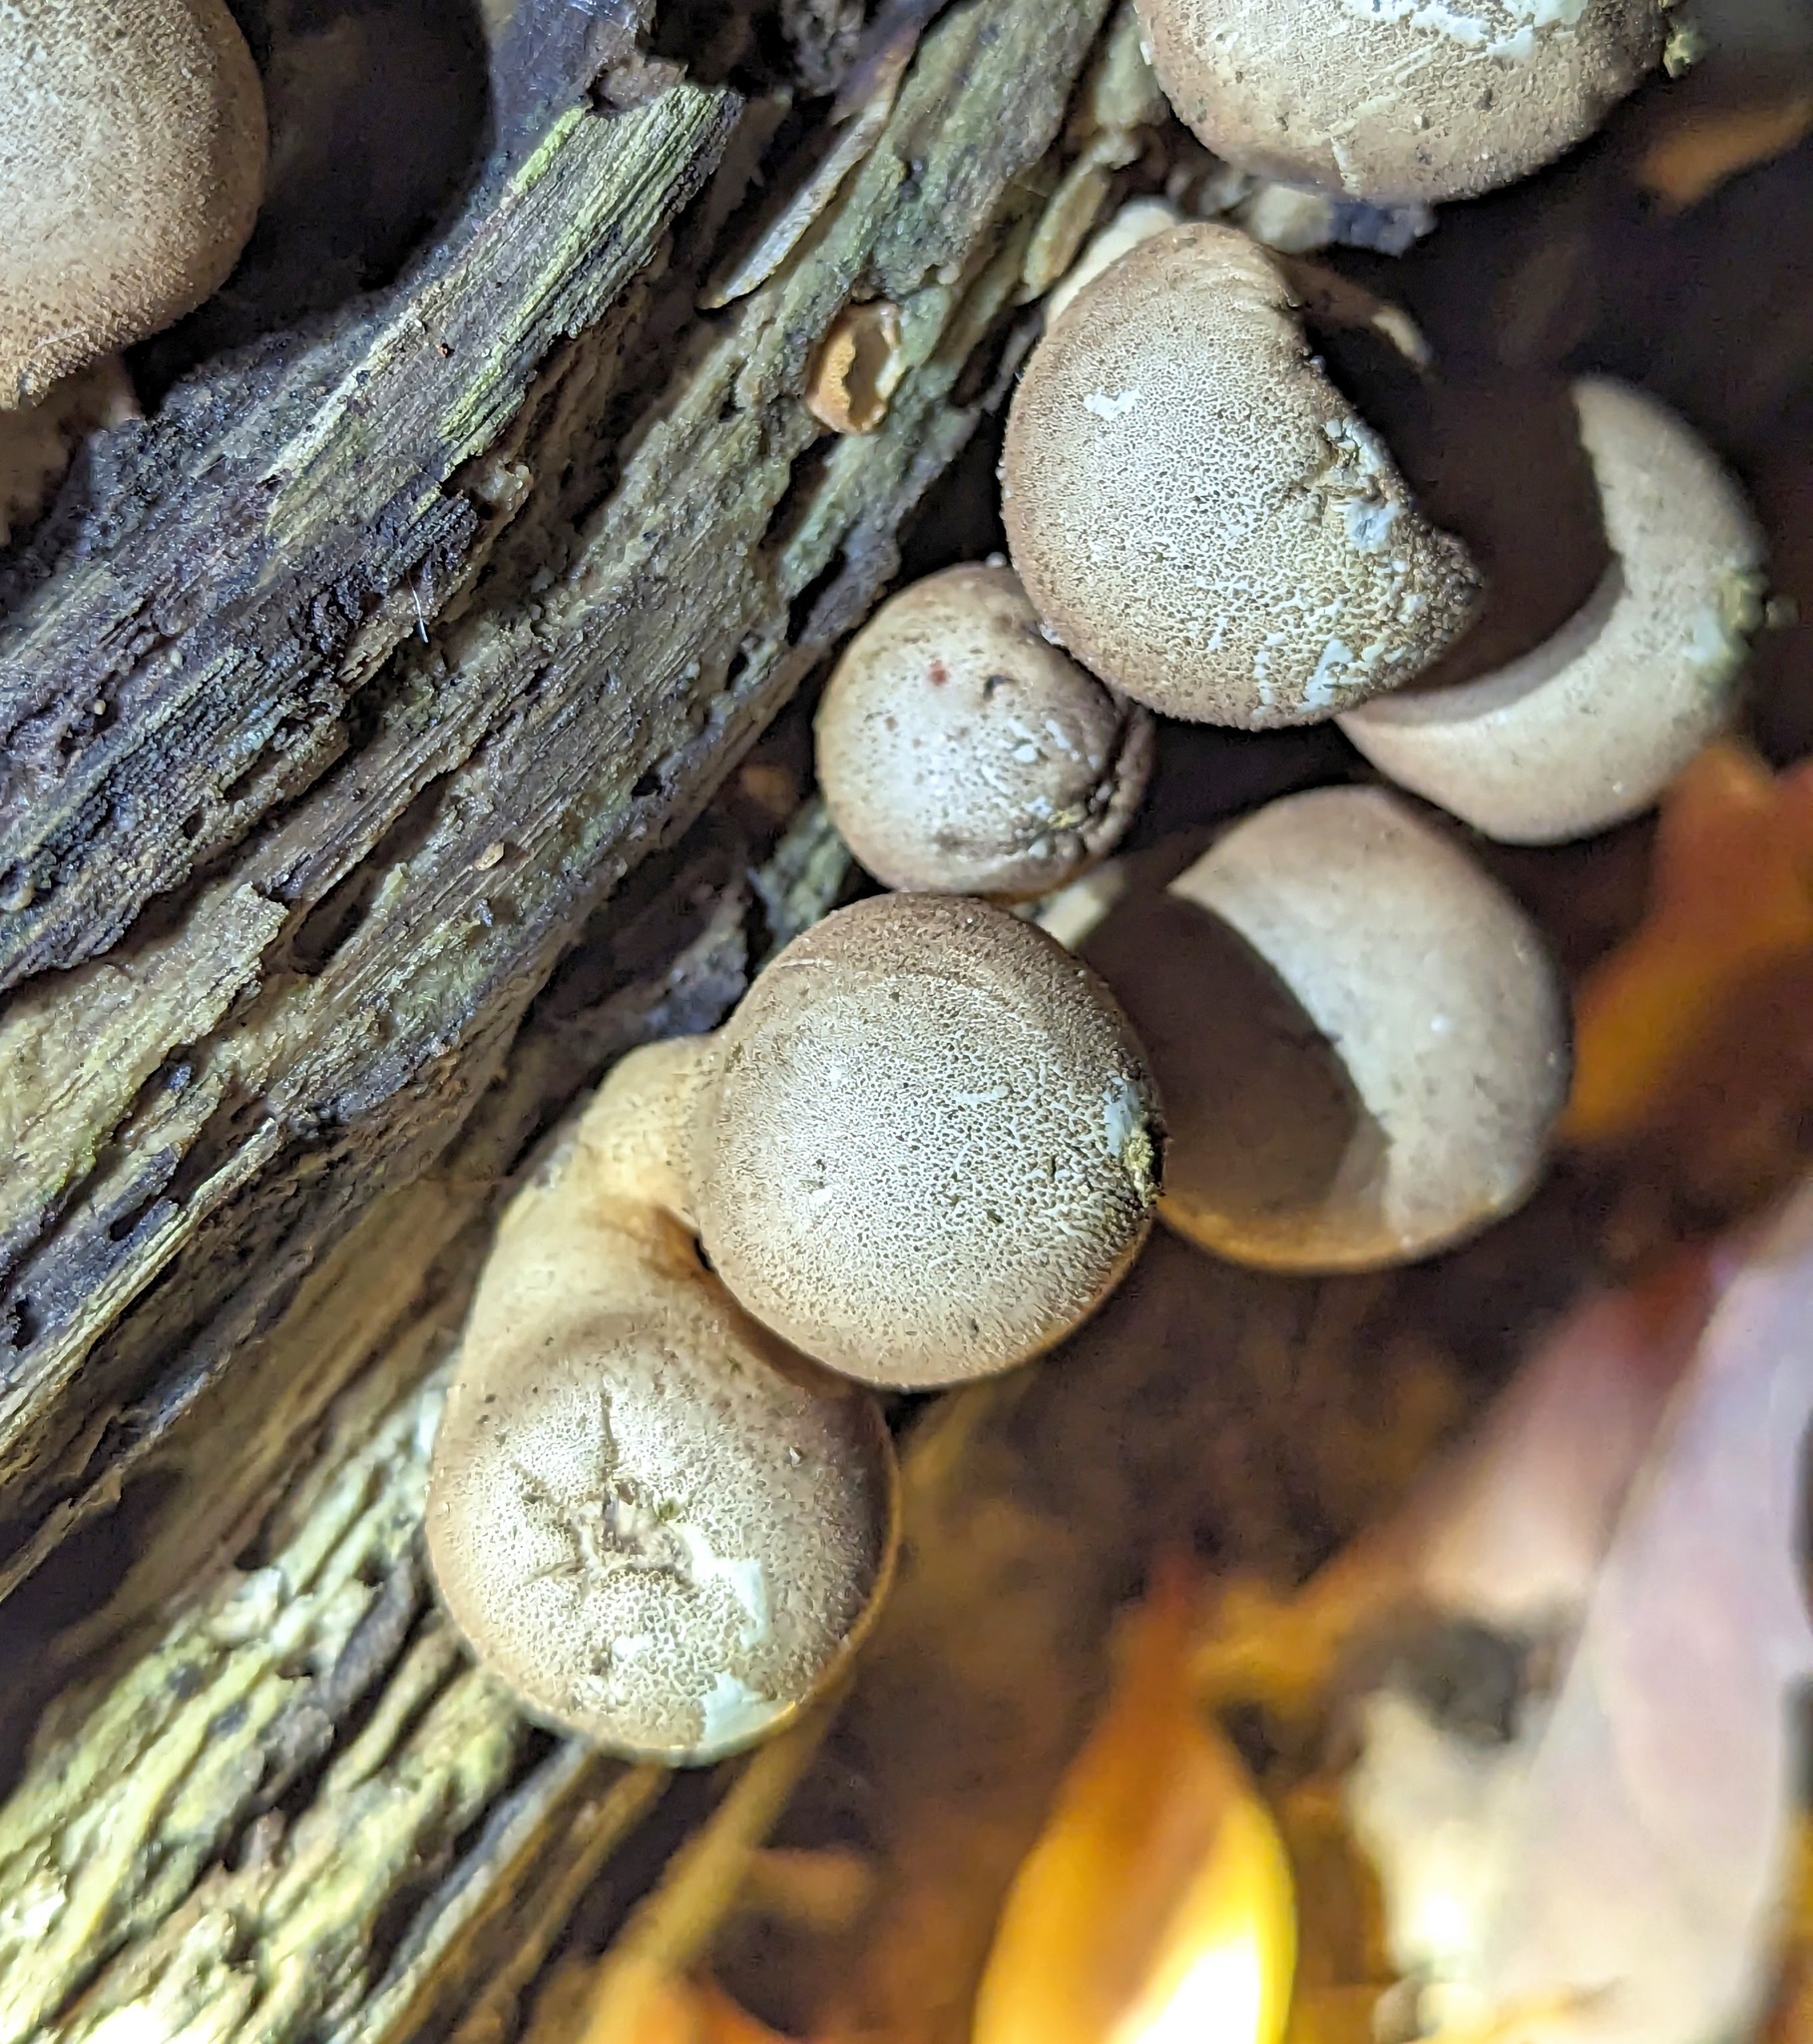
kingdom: Fungi
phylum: Basidiomycota
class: Agaricomycetes
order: Agaricales
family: Lycoperdaceae
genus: Apioperdon
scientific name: Apioperdon pyriforme
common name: Pear-shaped puffball
